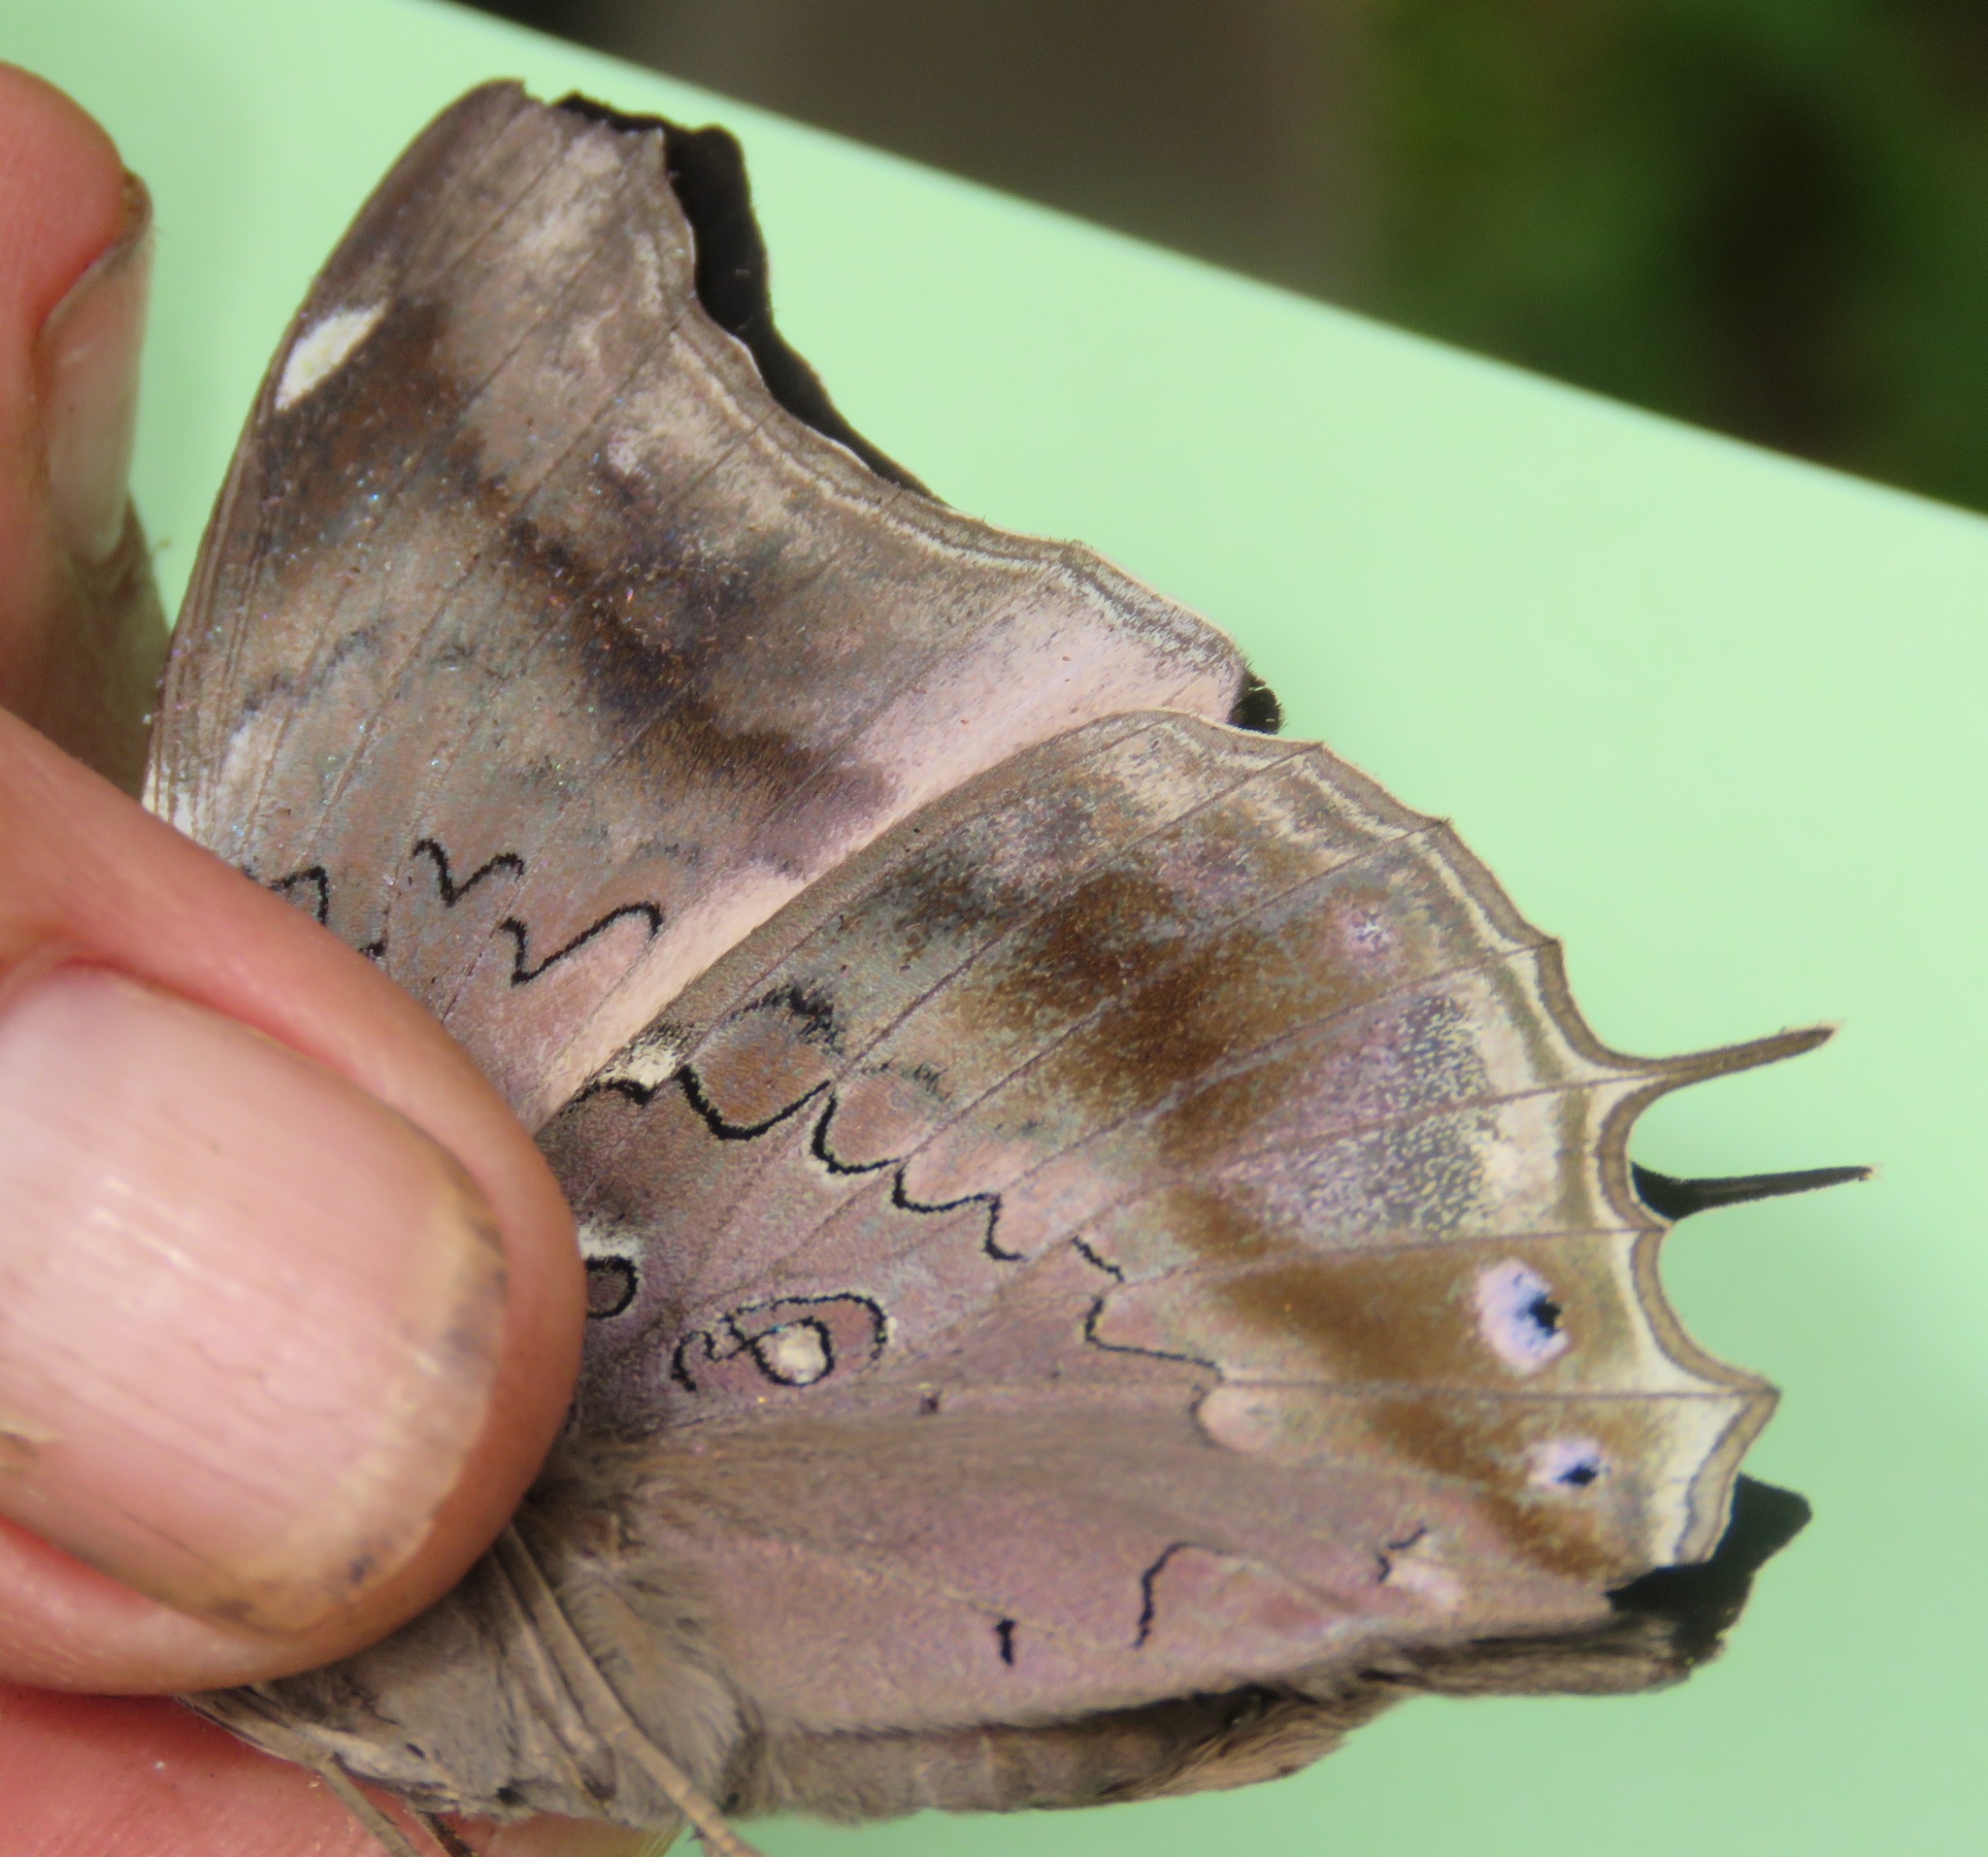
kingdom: Animalia
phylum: Arthropoda
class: Insecta
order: Lepidoptera
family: Nymphalidae
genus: Coea
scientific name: Coea acheronta
